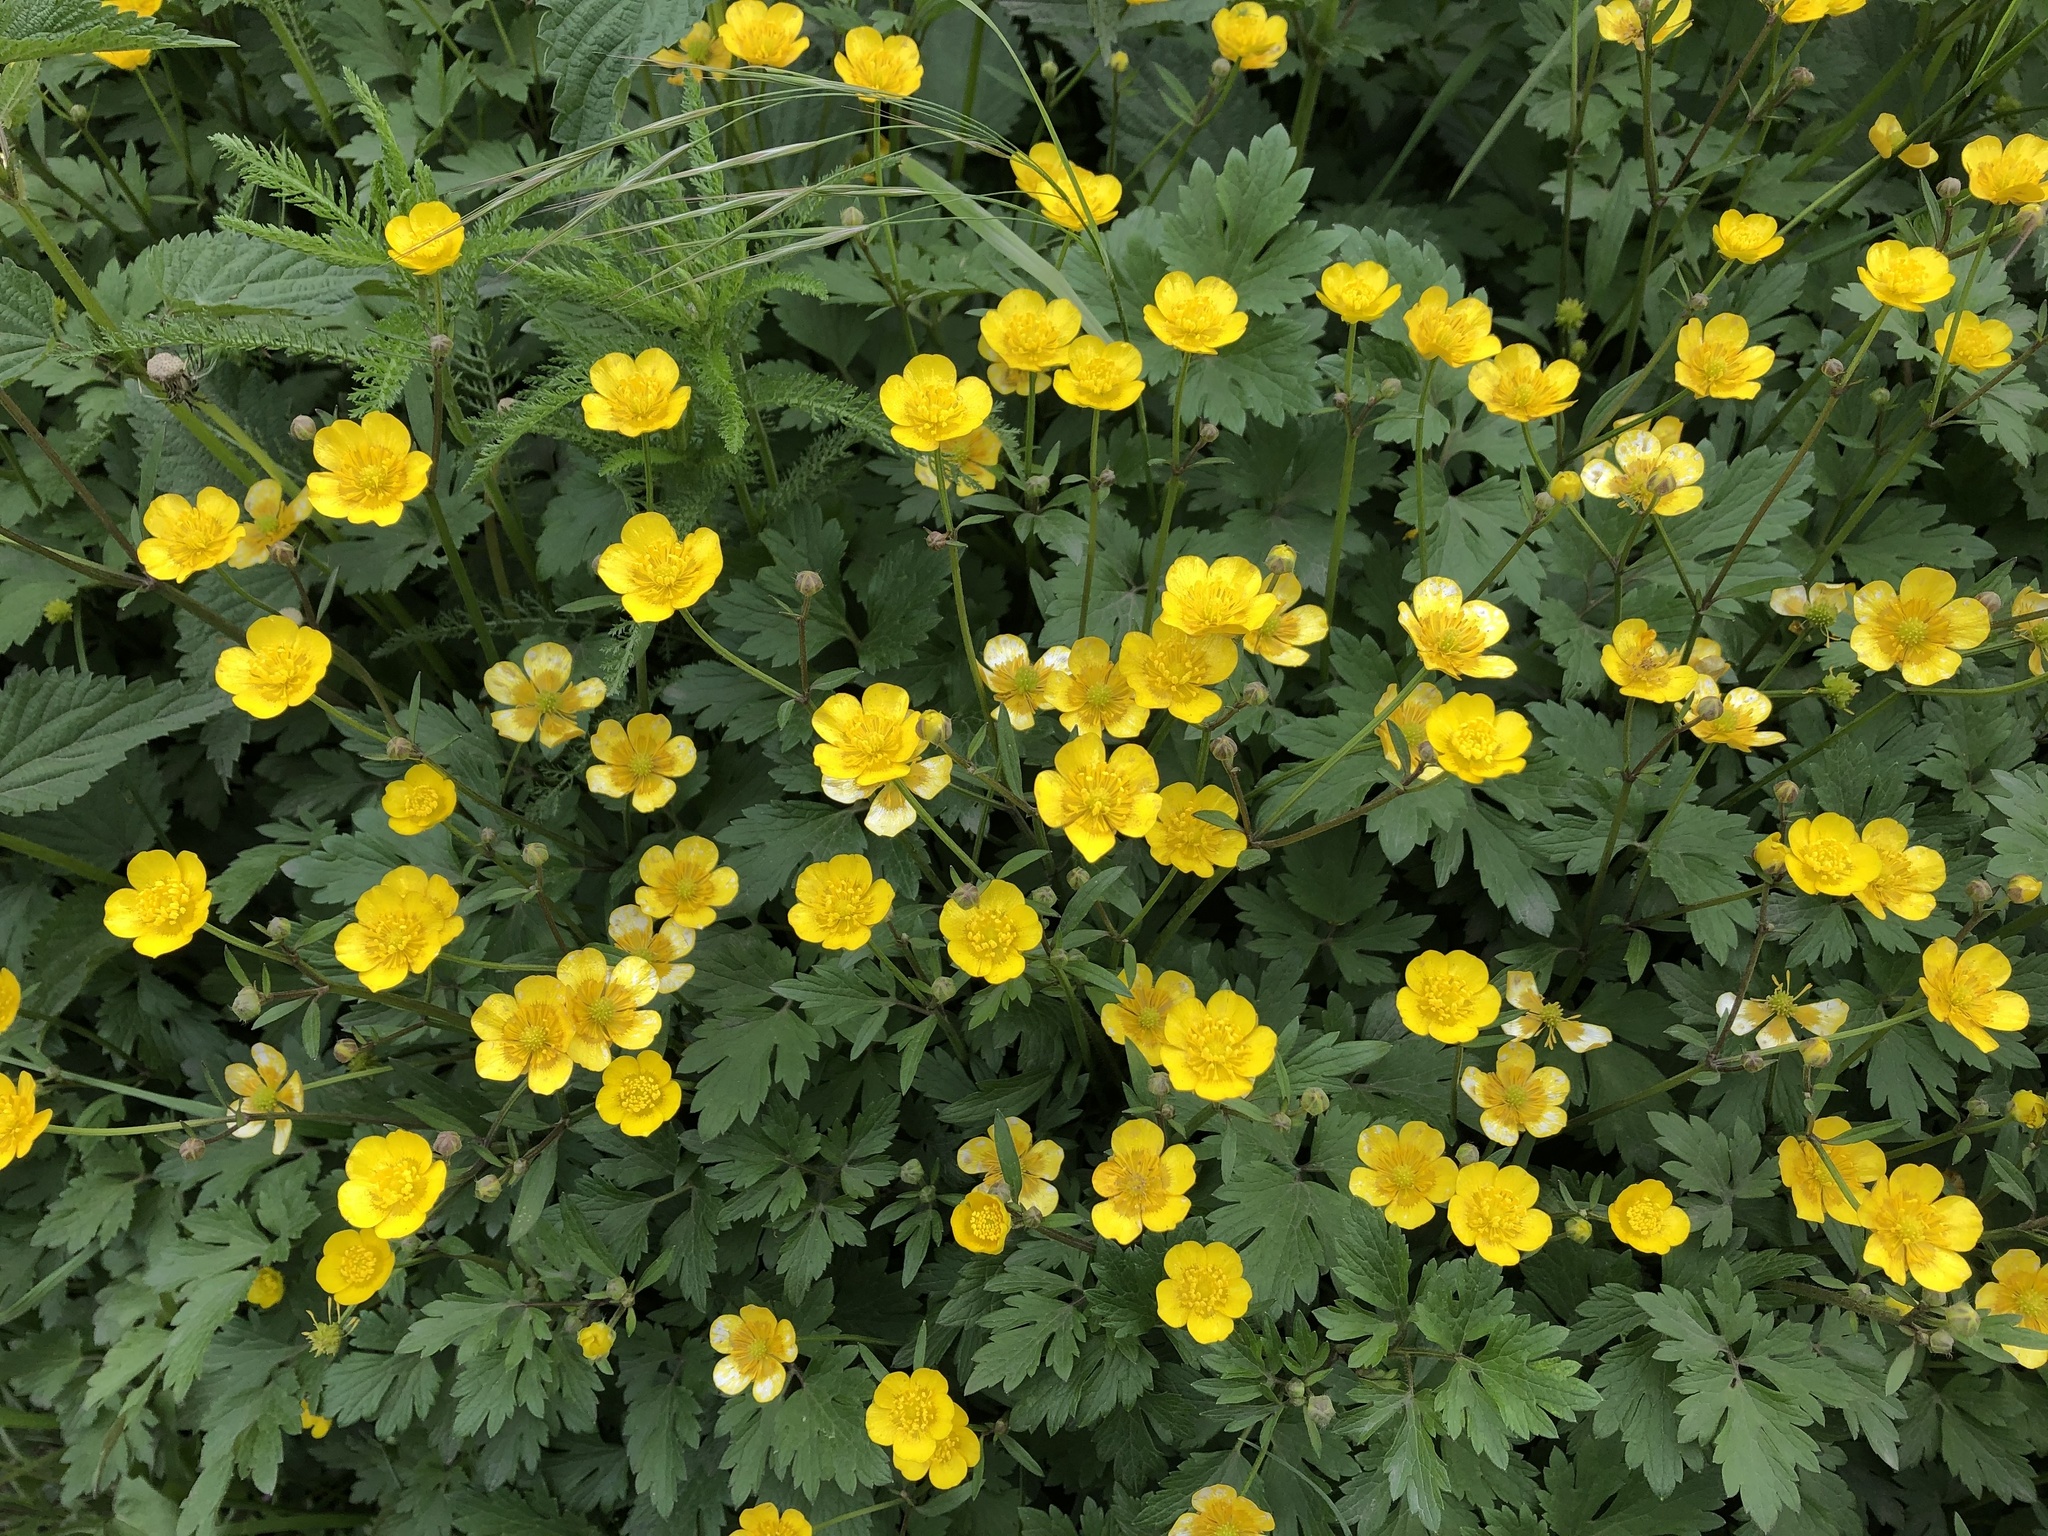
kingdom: Plantae
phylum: Tracheophyta
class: Magnoliopsida
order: Ranunculales
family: Ranunculaceae
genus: Ranunculus
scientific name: Ranunculus repens
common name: Creeping buttercup
